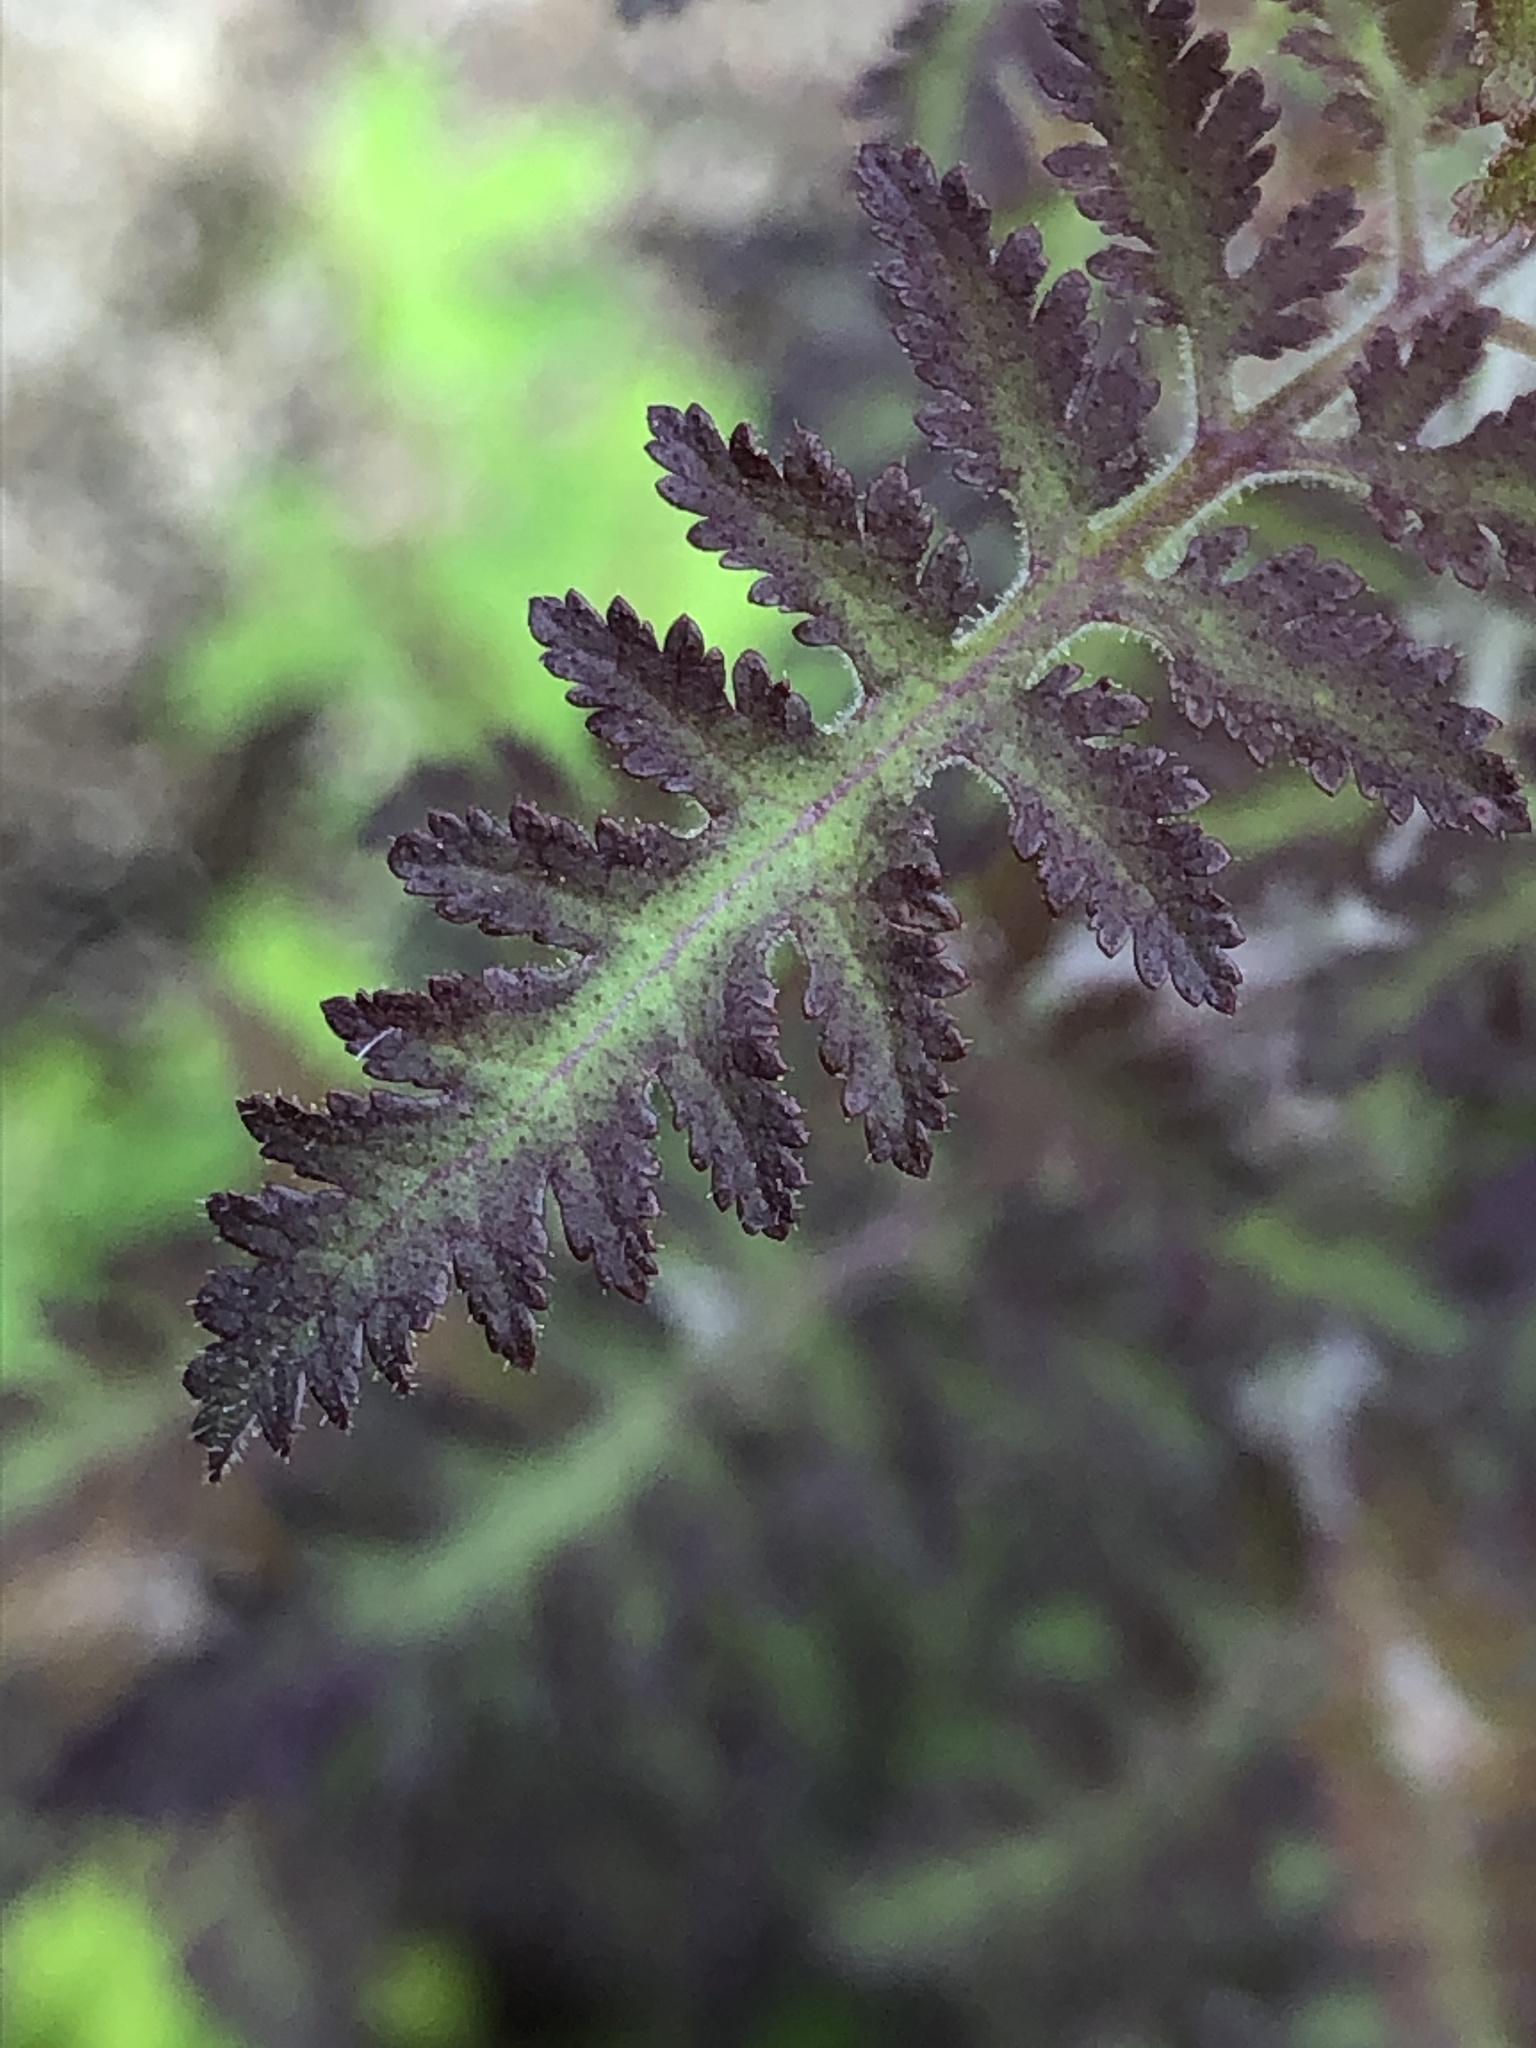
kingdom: Plantae
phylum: Tracheophyta
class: Magnoliopsida
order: Lamiales
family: Orobanchaceae
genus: Phtheirospermum
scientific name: Phtheirospermum japonicum
